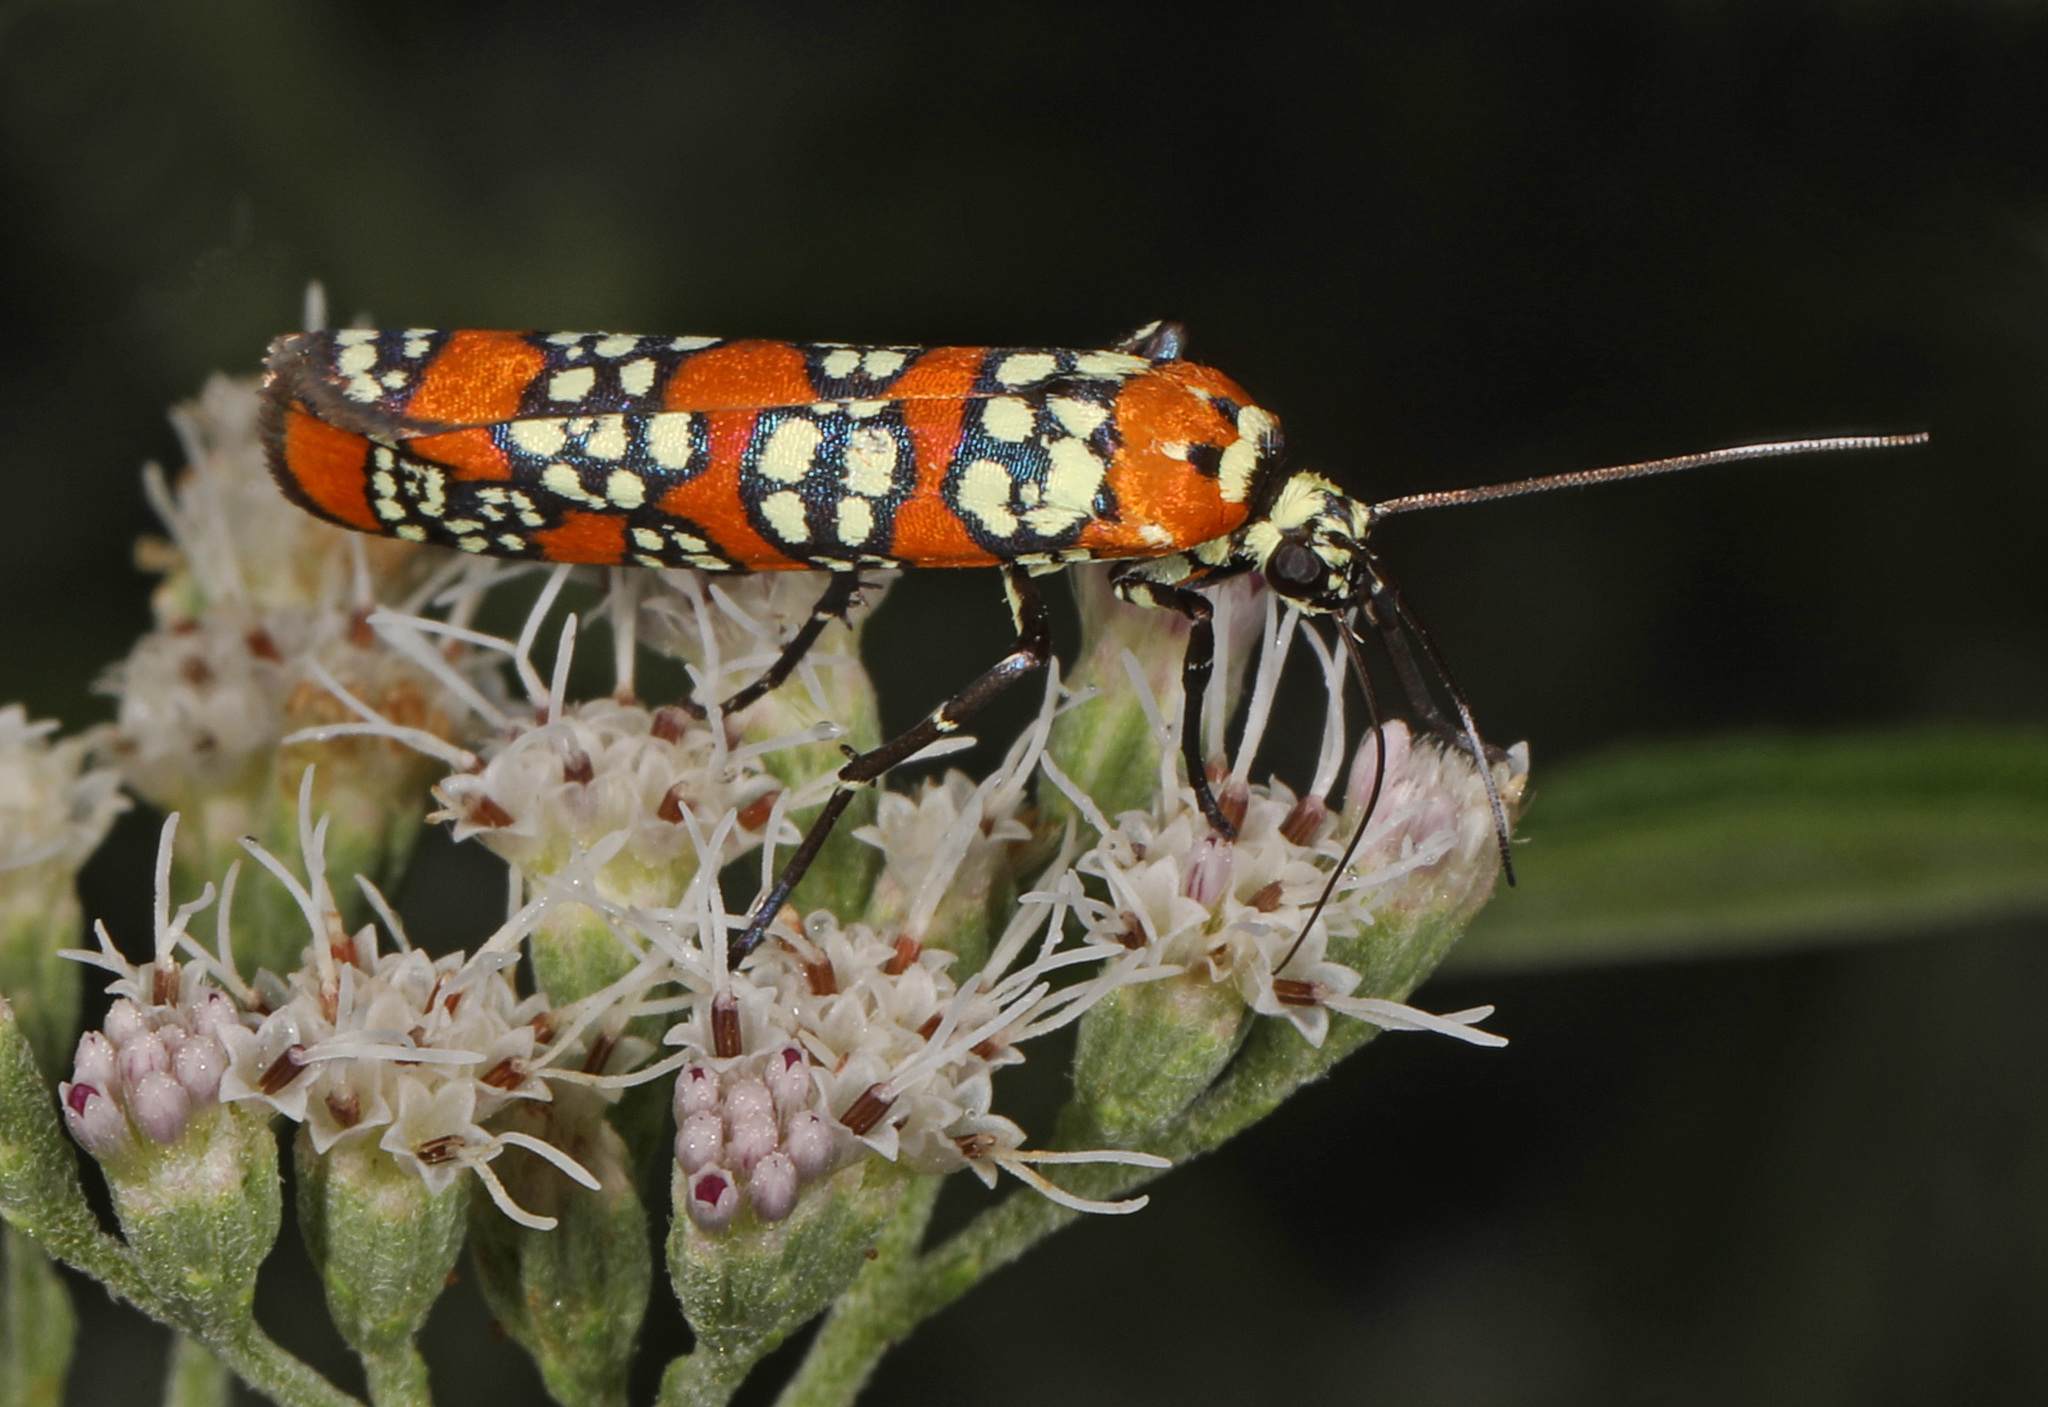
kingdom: Animalia
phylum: Arthropoda
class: Insecta
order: Lepidoptera
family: Attevidae
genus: Atteva
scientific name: Atteva punctella
